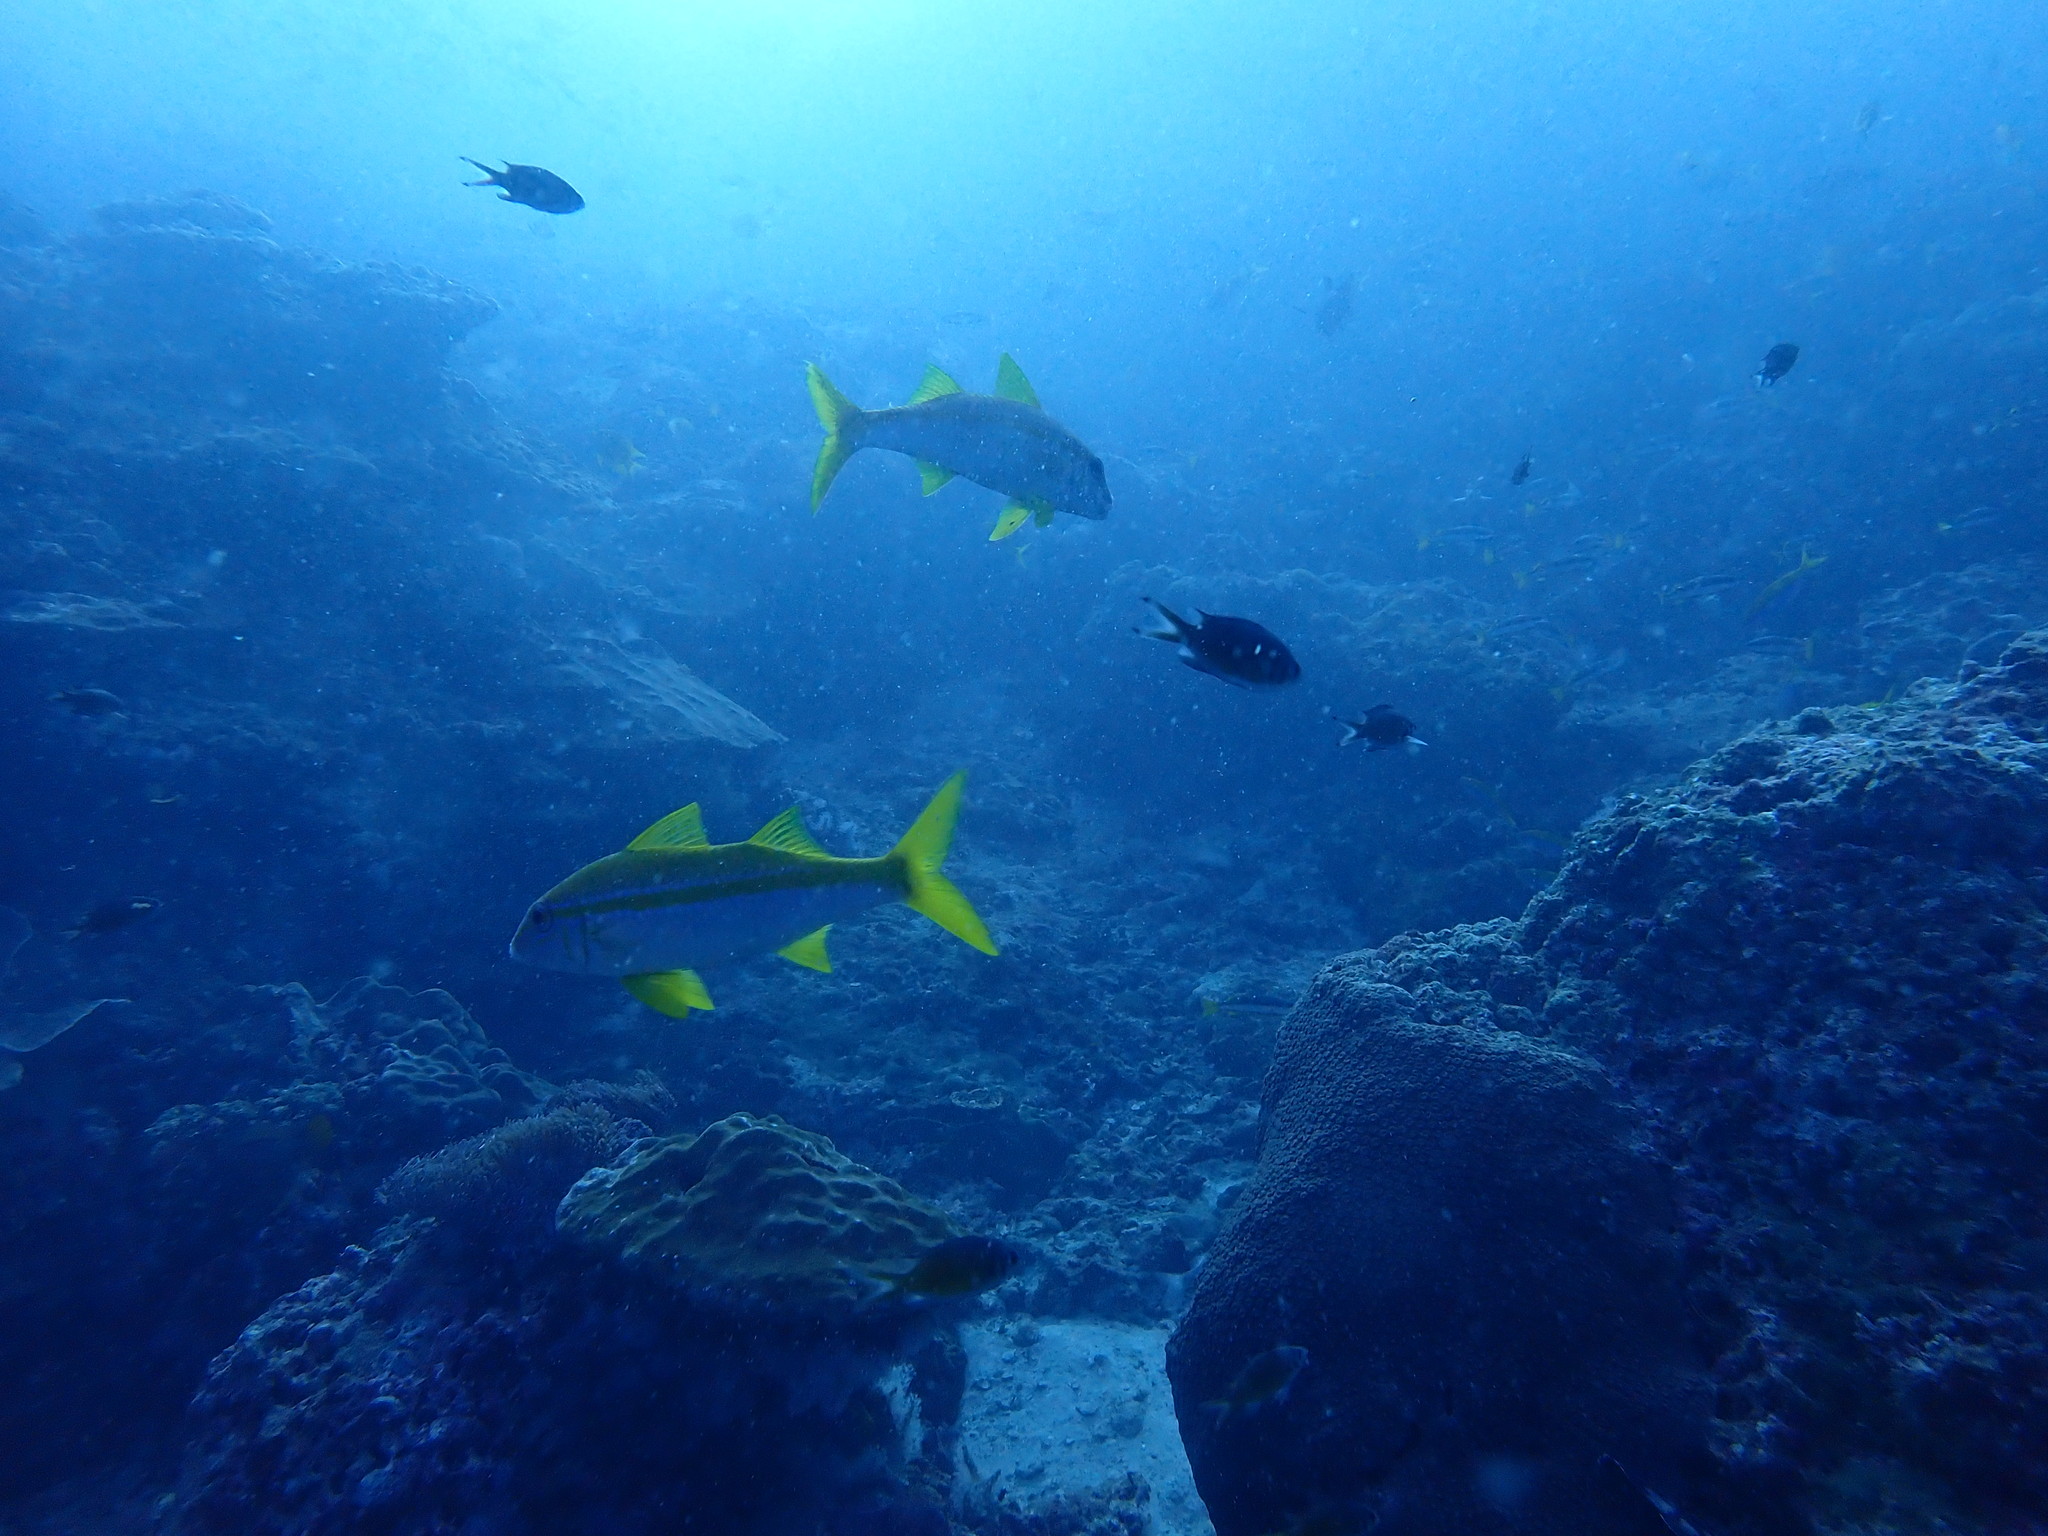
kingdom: Animalia
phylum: Chordata
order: Perciformes
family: Mullidae
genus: Mulloidichthys
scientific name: Mulloidichthys vanicolensis
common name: Yellowfin goatfish
